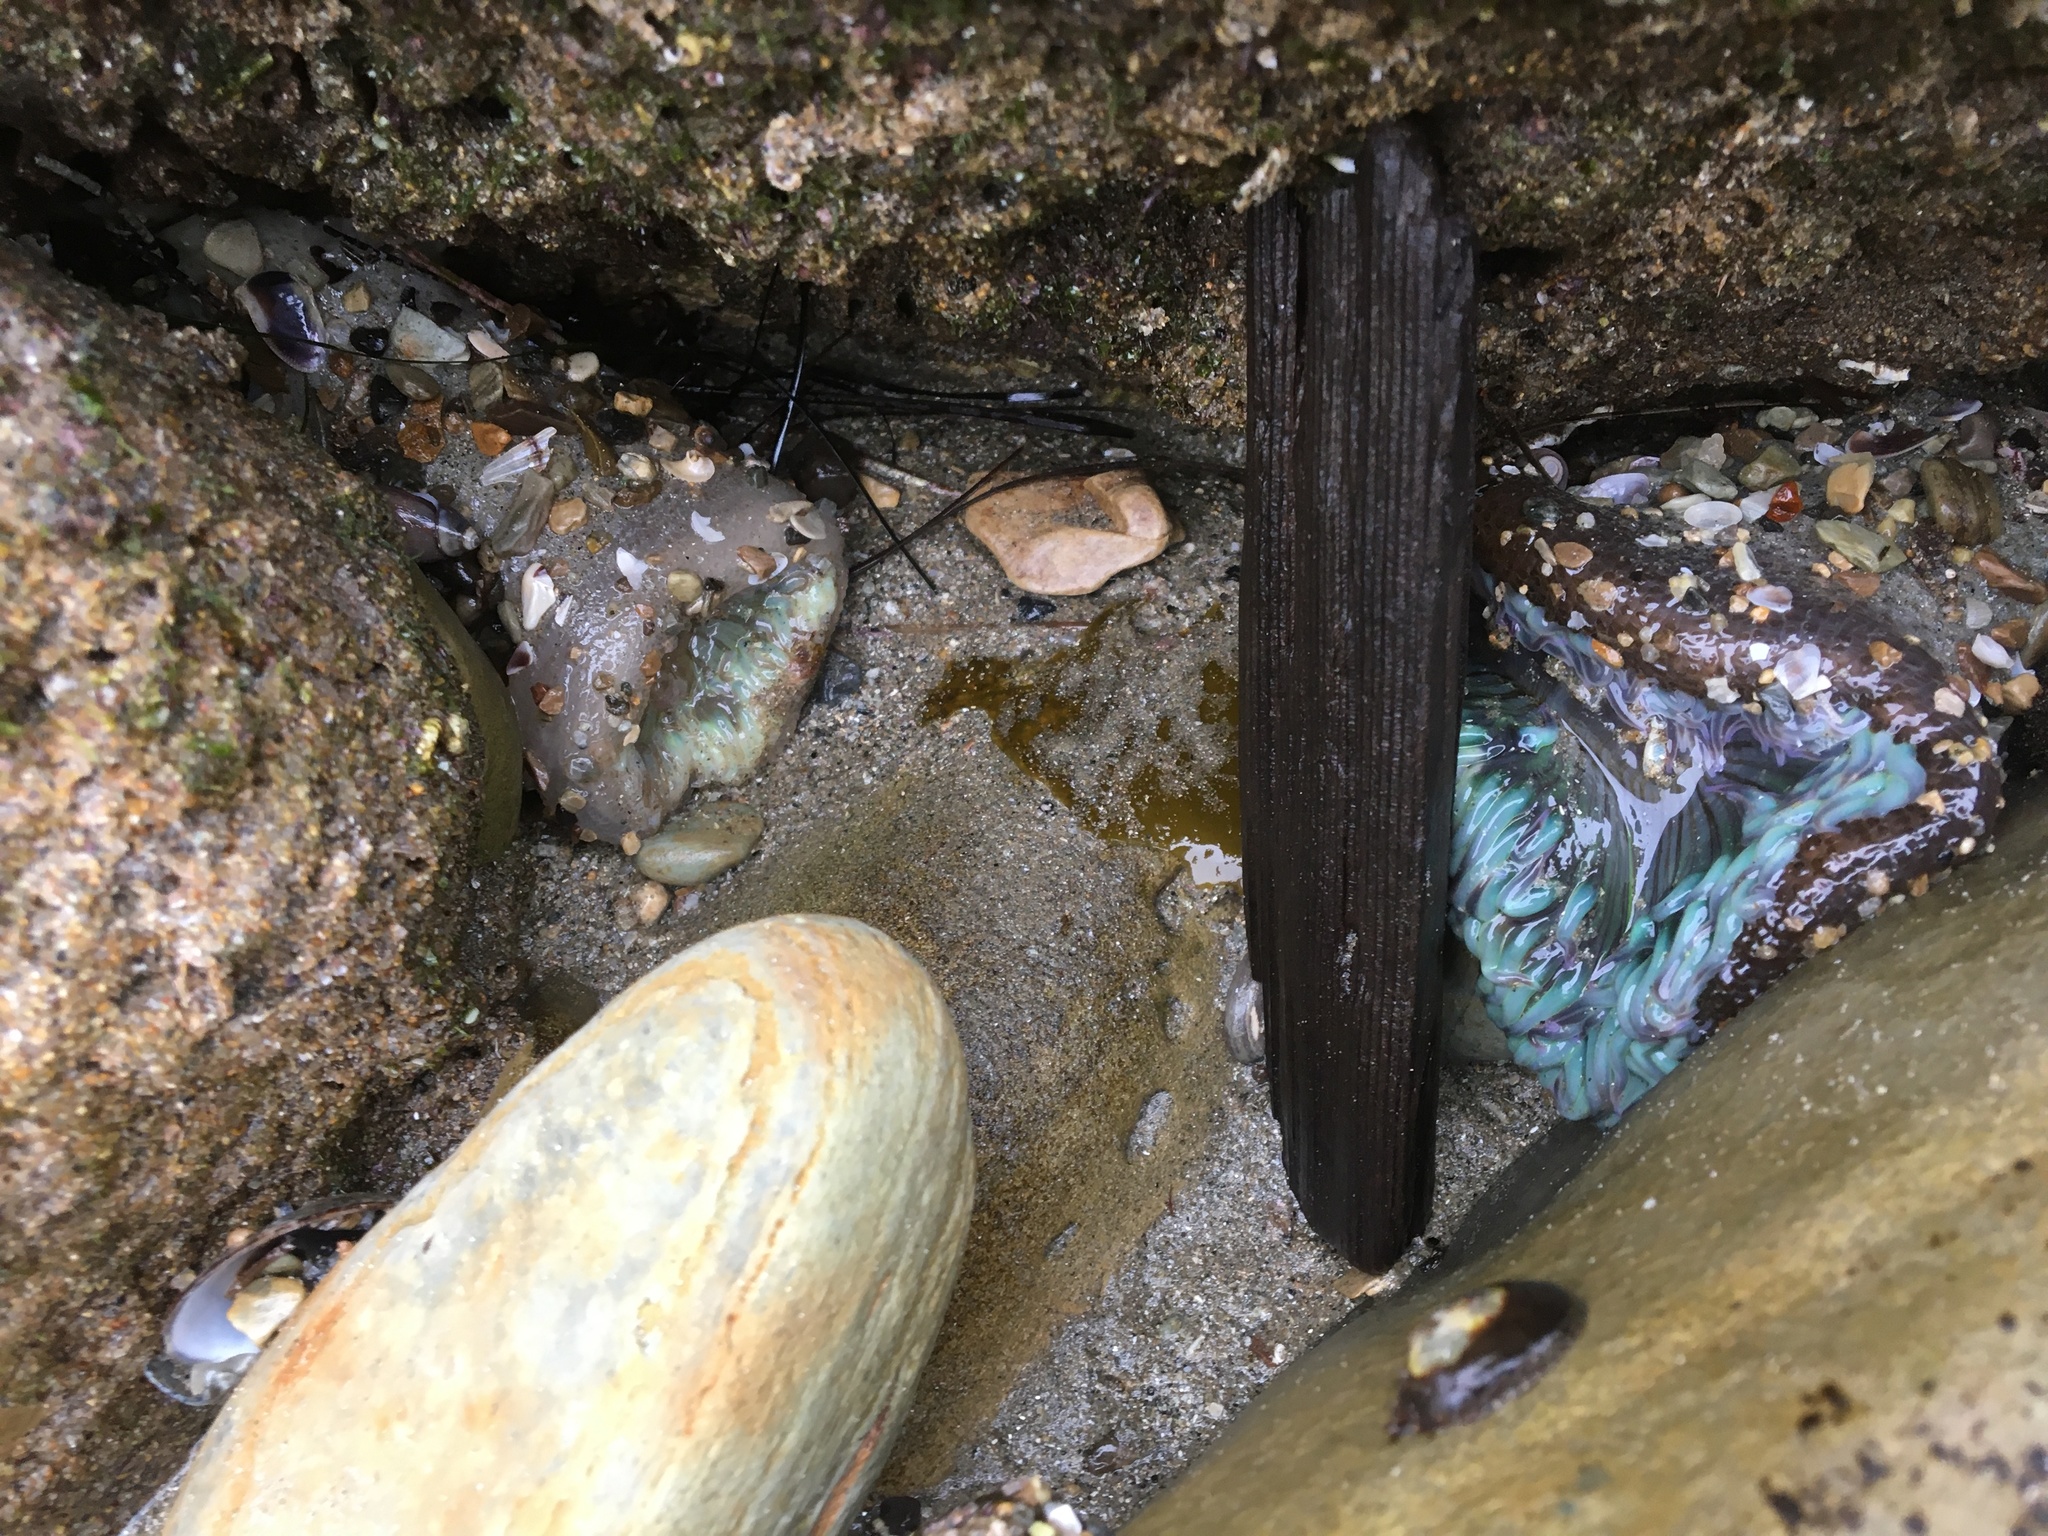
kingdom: Animalia
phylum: Cnidaria
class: Anthozoa
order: Actiniaria
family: Actiniidae
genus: Anthopleura
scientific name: Anthopleura sola
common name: Sun anemone
